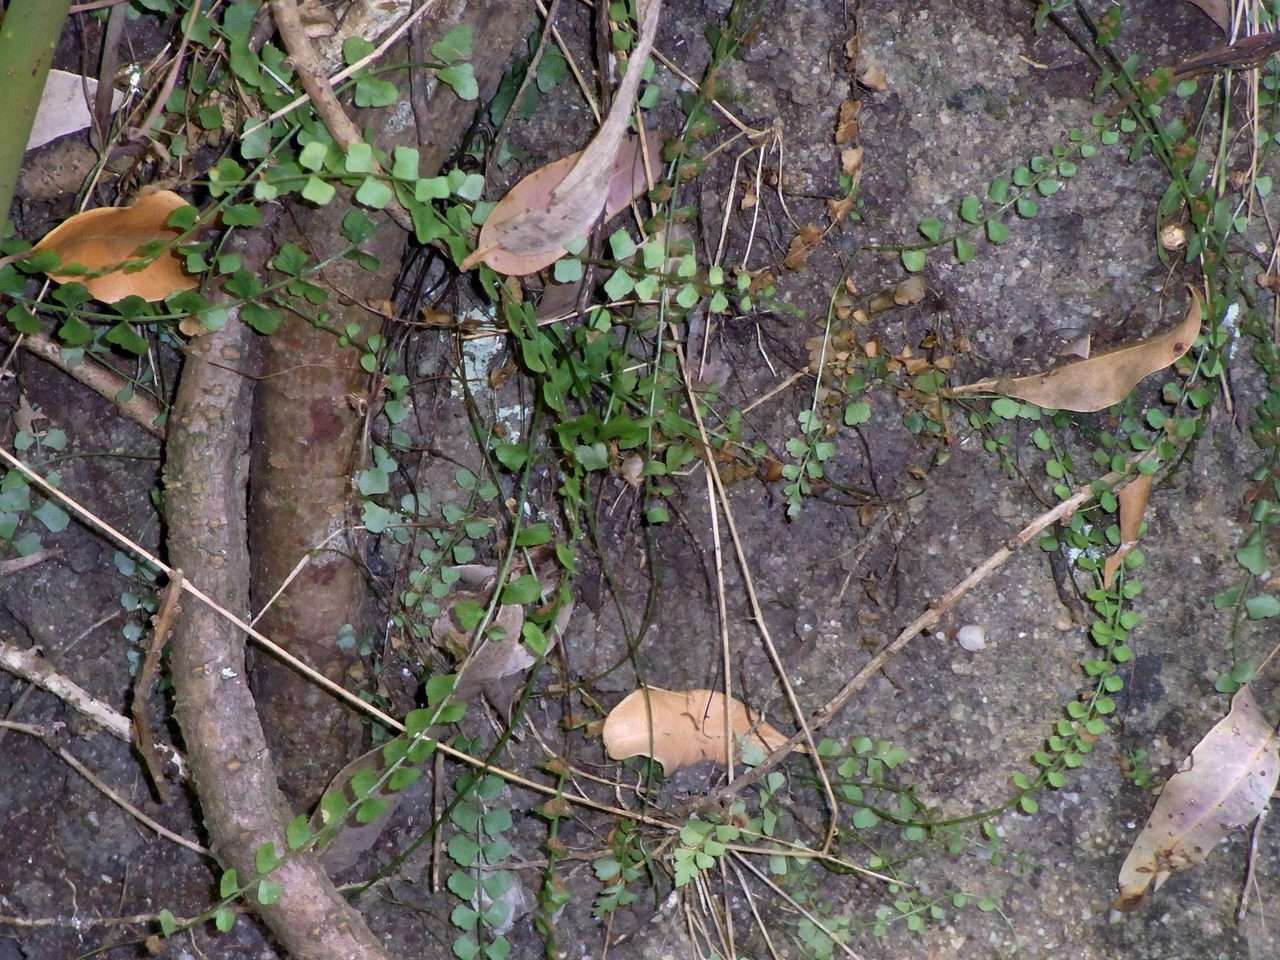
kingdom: Plantae
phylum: Tracheophyta
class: Polypodiopsida
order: Polypodiales
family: Aspleniaceae
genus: Asplenium
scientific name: Asplenium flabellifolium
